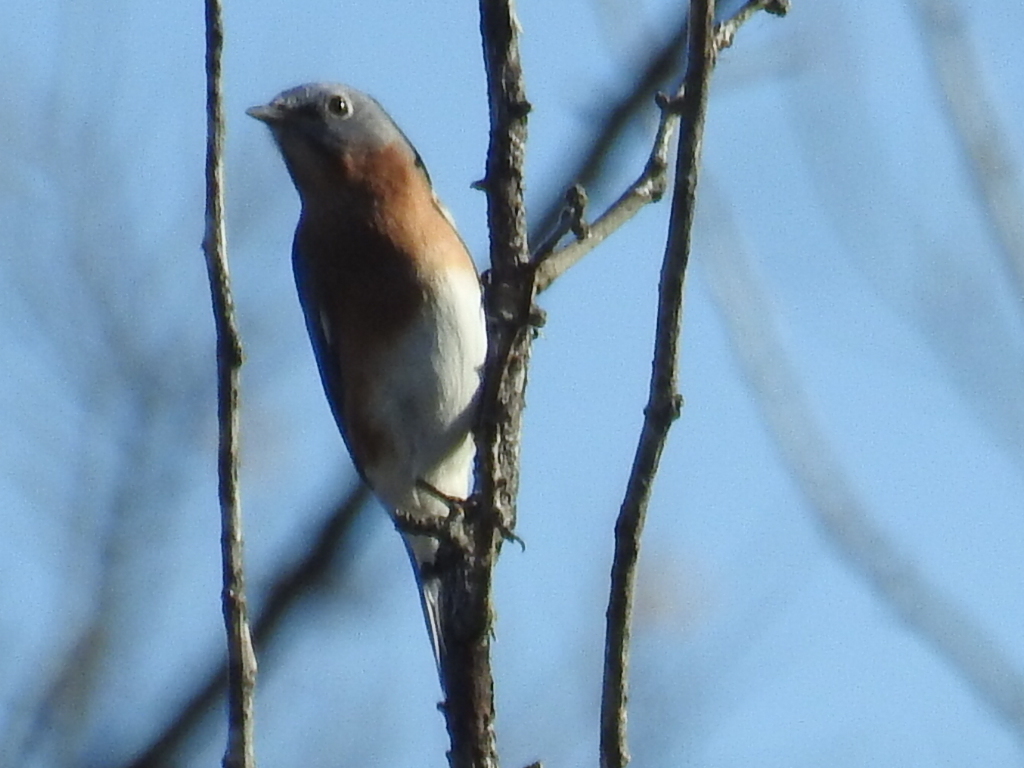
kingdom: Animalia
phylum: Chordata
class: Aves
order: Passeriformes
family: Turdidae
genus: Sialia
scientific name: Sialia sialis
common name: Eastern bluebird
